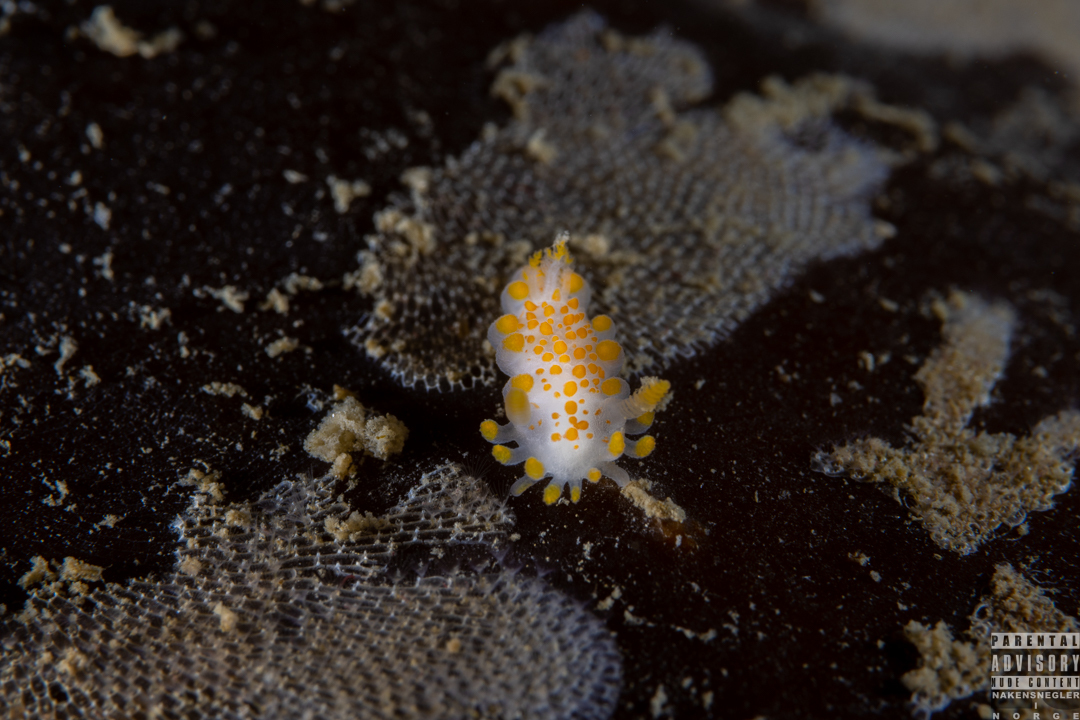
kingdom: Animalia
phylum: Mollusca
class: Gastropoda
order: Nudibranchia
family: Polyceridae
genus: Limacia
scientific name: Limacia clavigera
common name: Orange-clubbed sea slug
